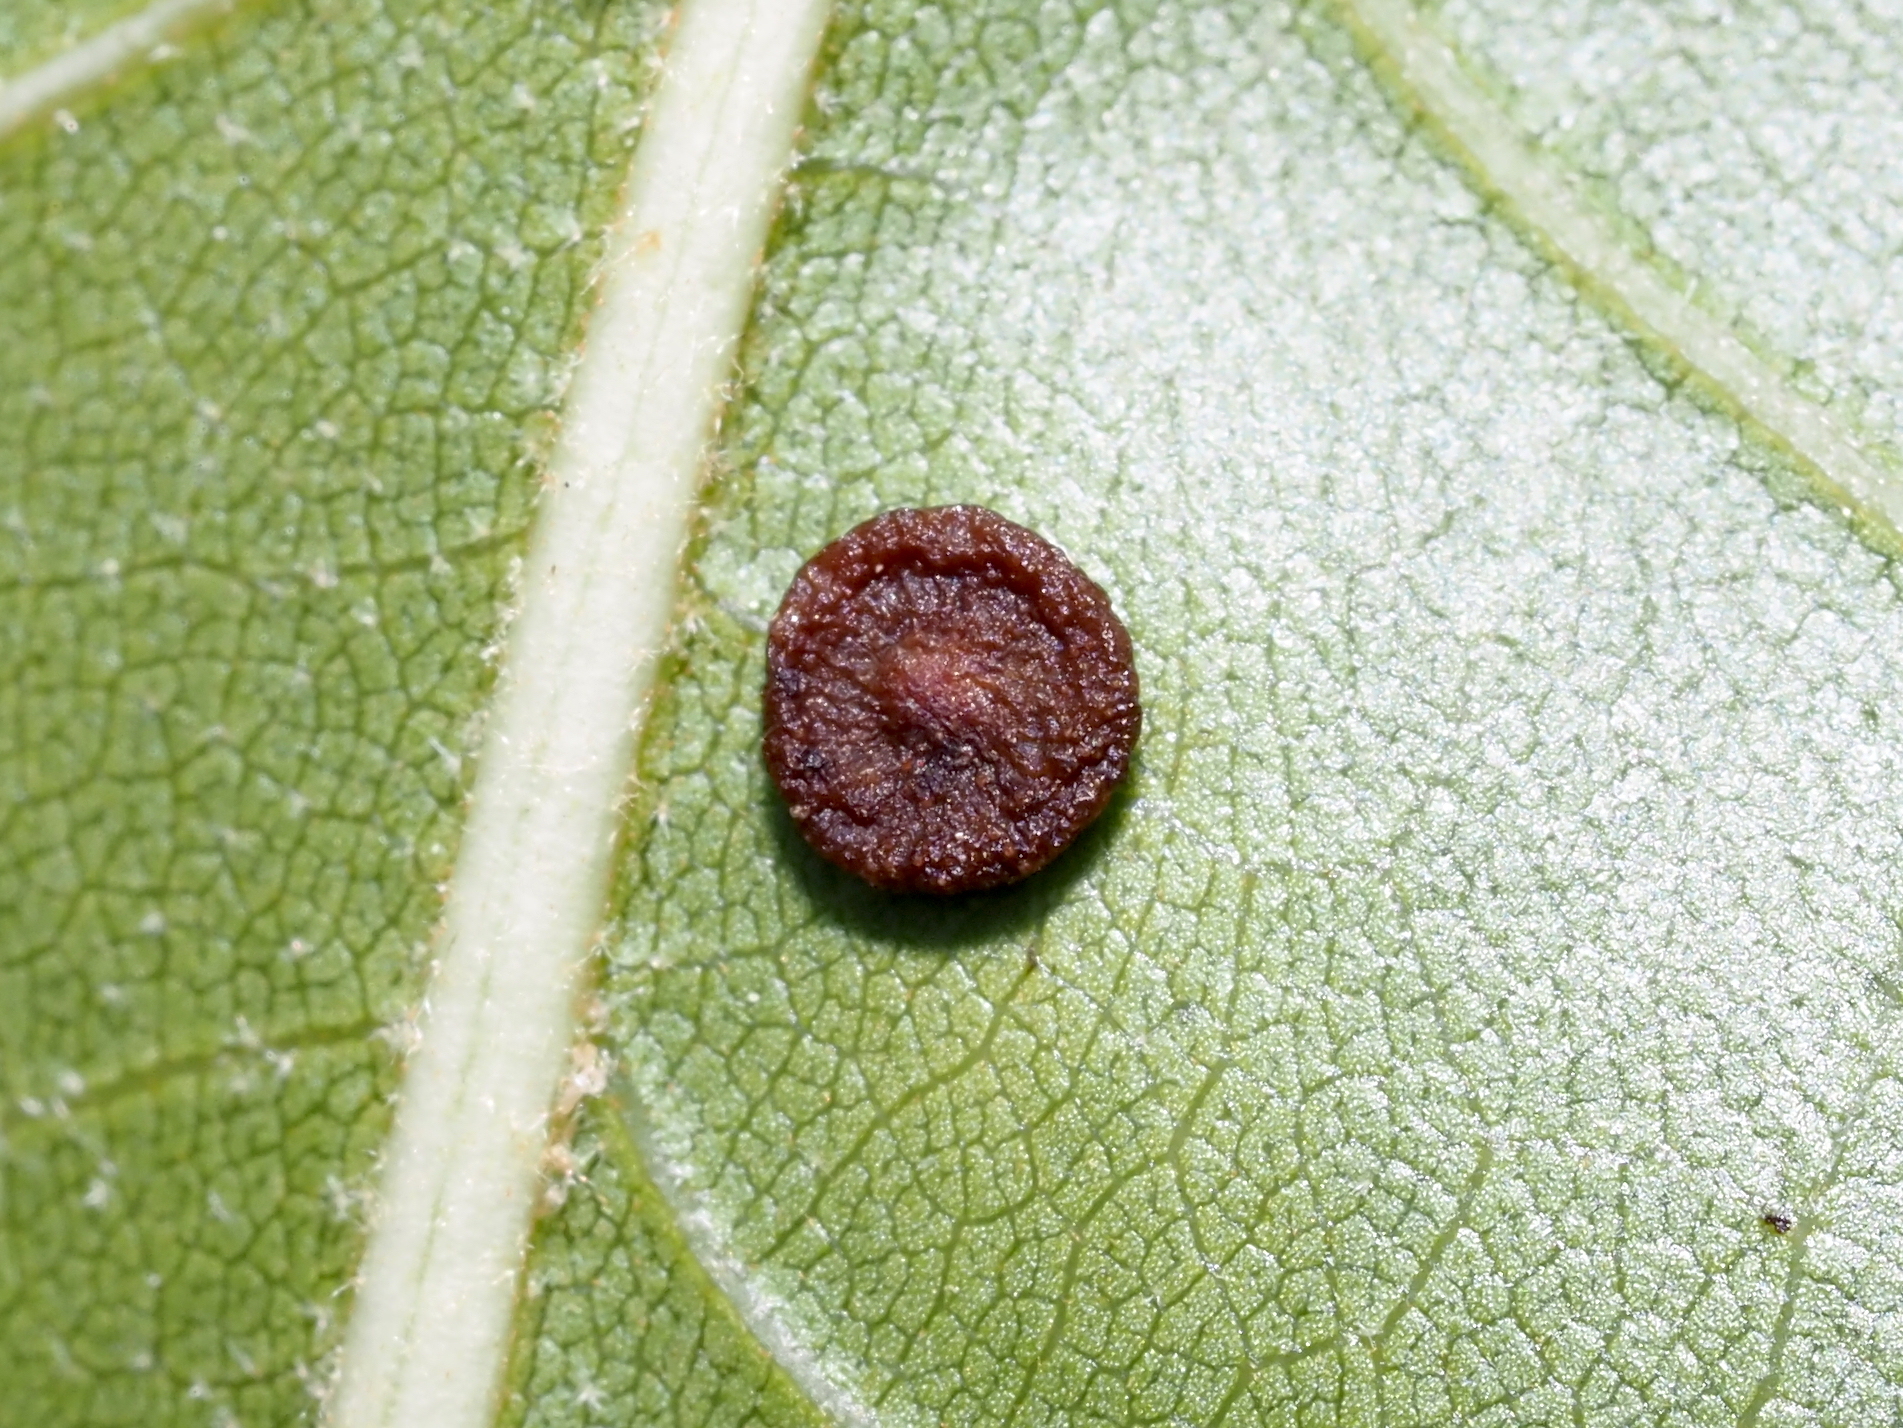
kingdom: Animalia
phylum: Arthropoda
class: Insecta
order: Hymenoptera
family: Cynipidae
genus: Dryocosmus
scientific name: Dryocosmus
